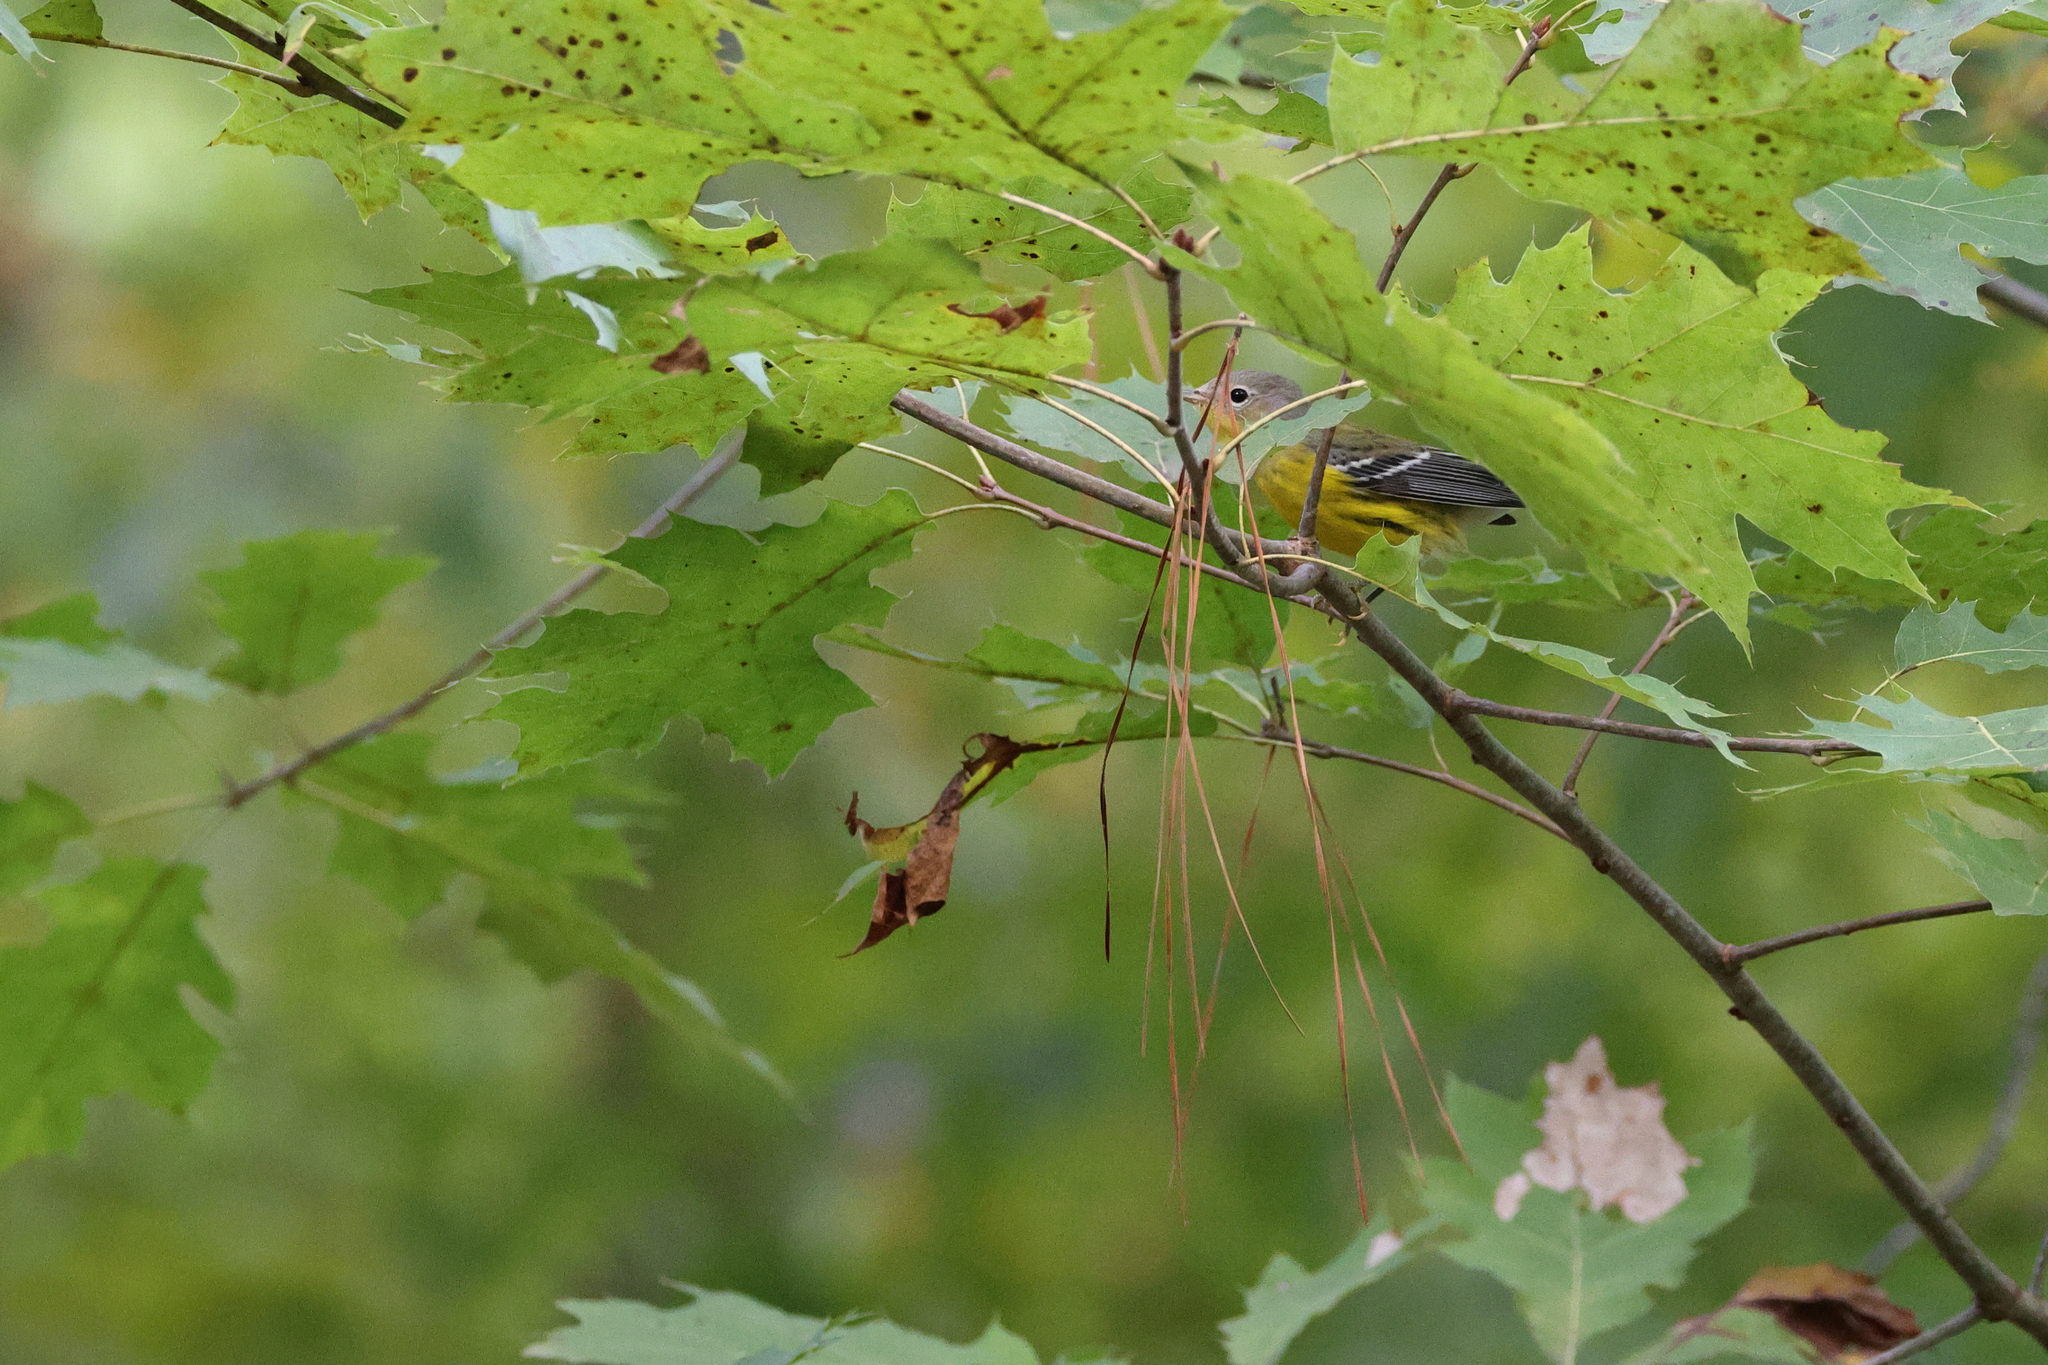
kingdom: Animalia
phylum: Chordata
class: Aves
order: Passeriformes
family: Parulidae
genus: Setophaga
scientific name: Setophaga magnolia
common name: Magnolia warbler
